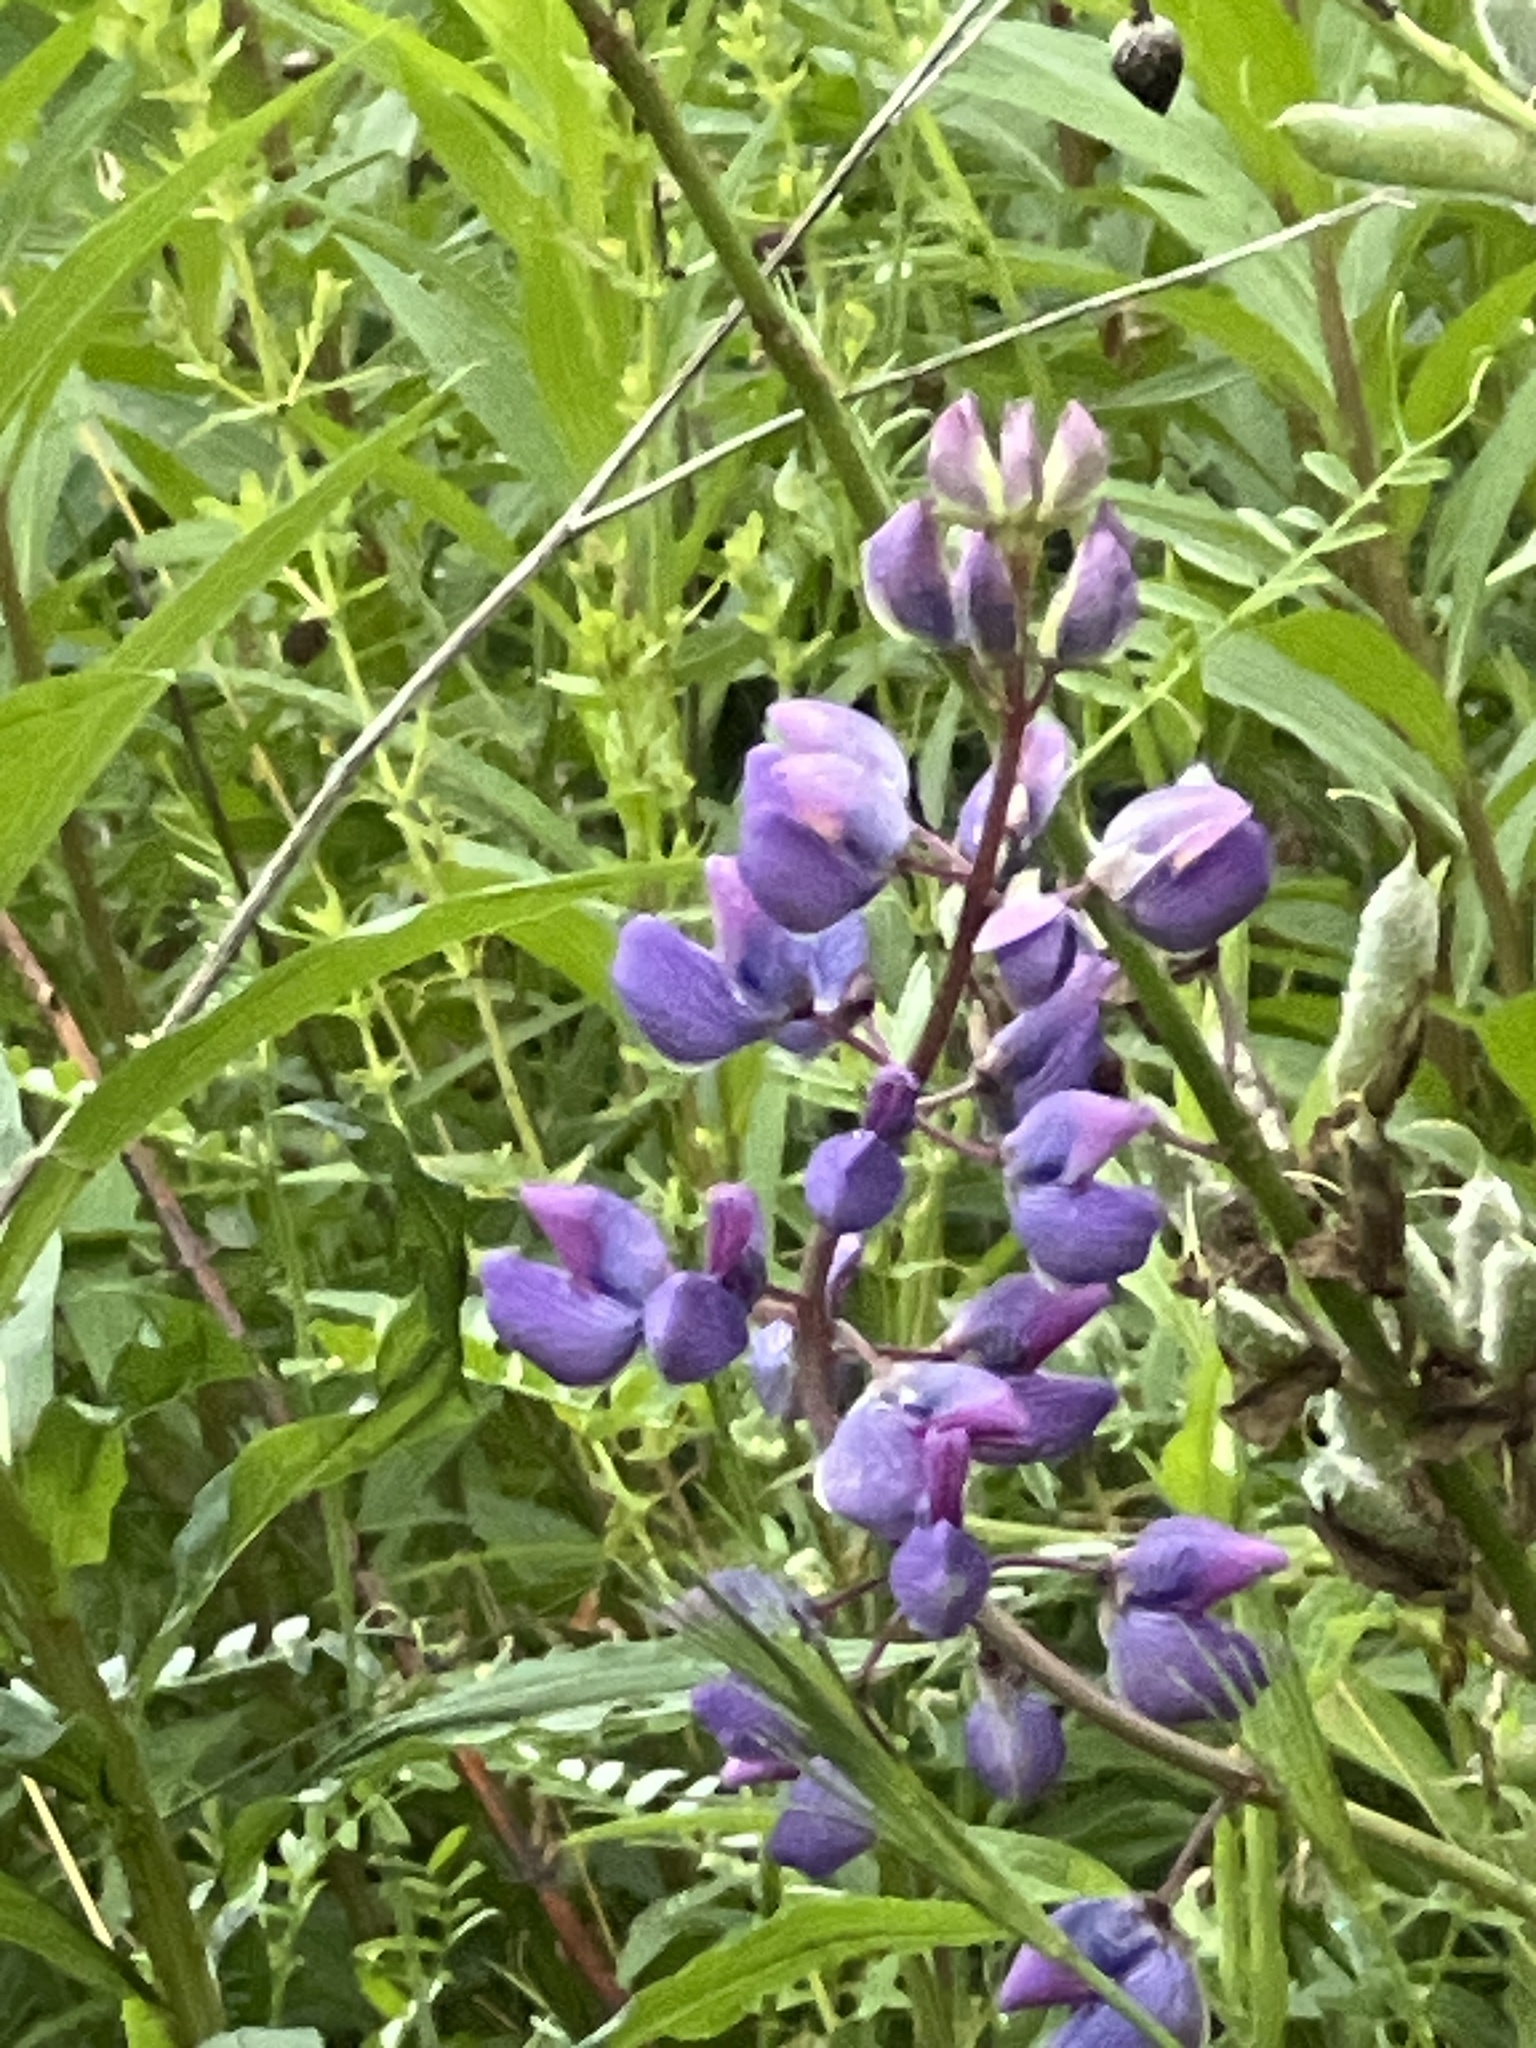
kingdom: Plantae
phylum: Tracheophyta
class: Magnoliopsida
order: Fabales
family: Fabaceae
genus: Lupinus
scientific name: Lupinus polyphyllus
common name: Garden lupin
